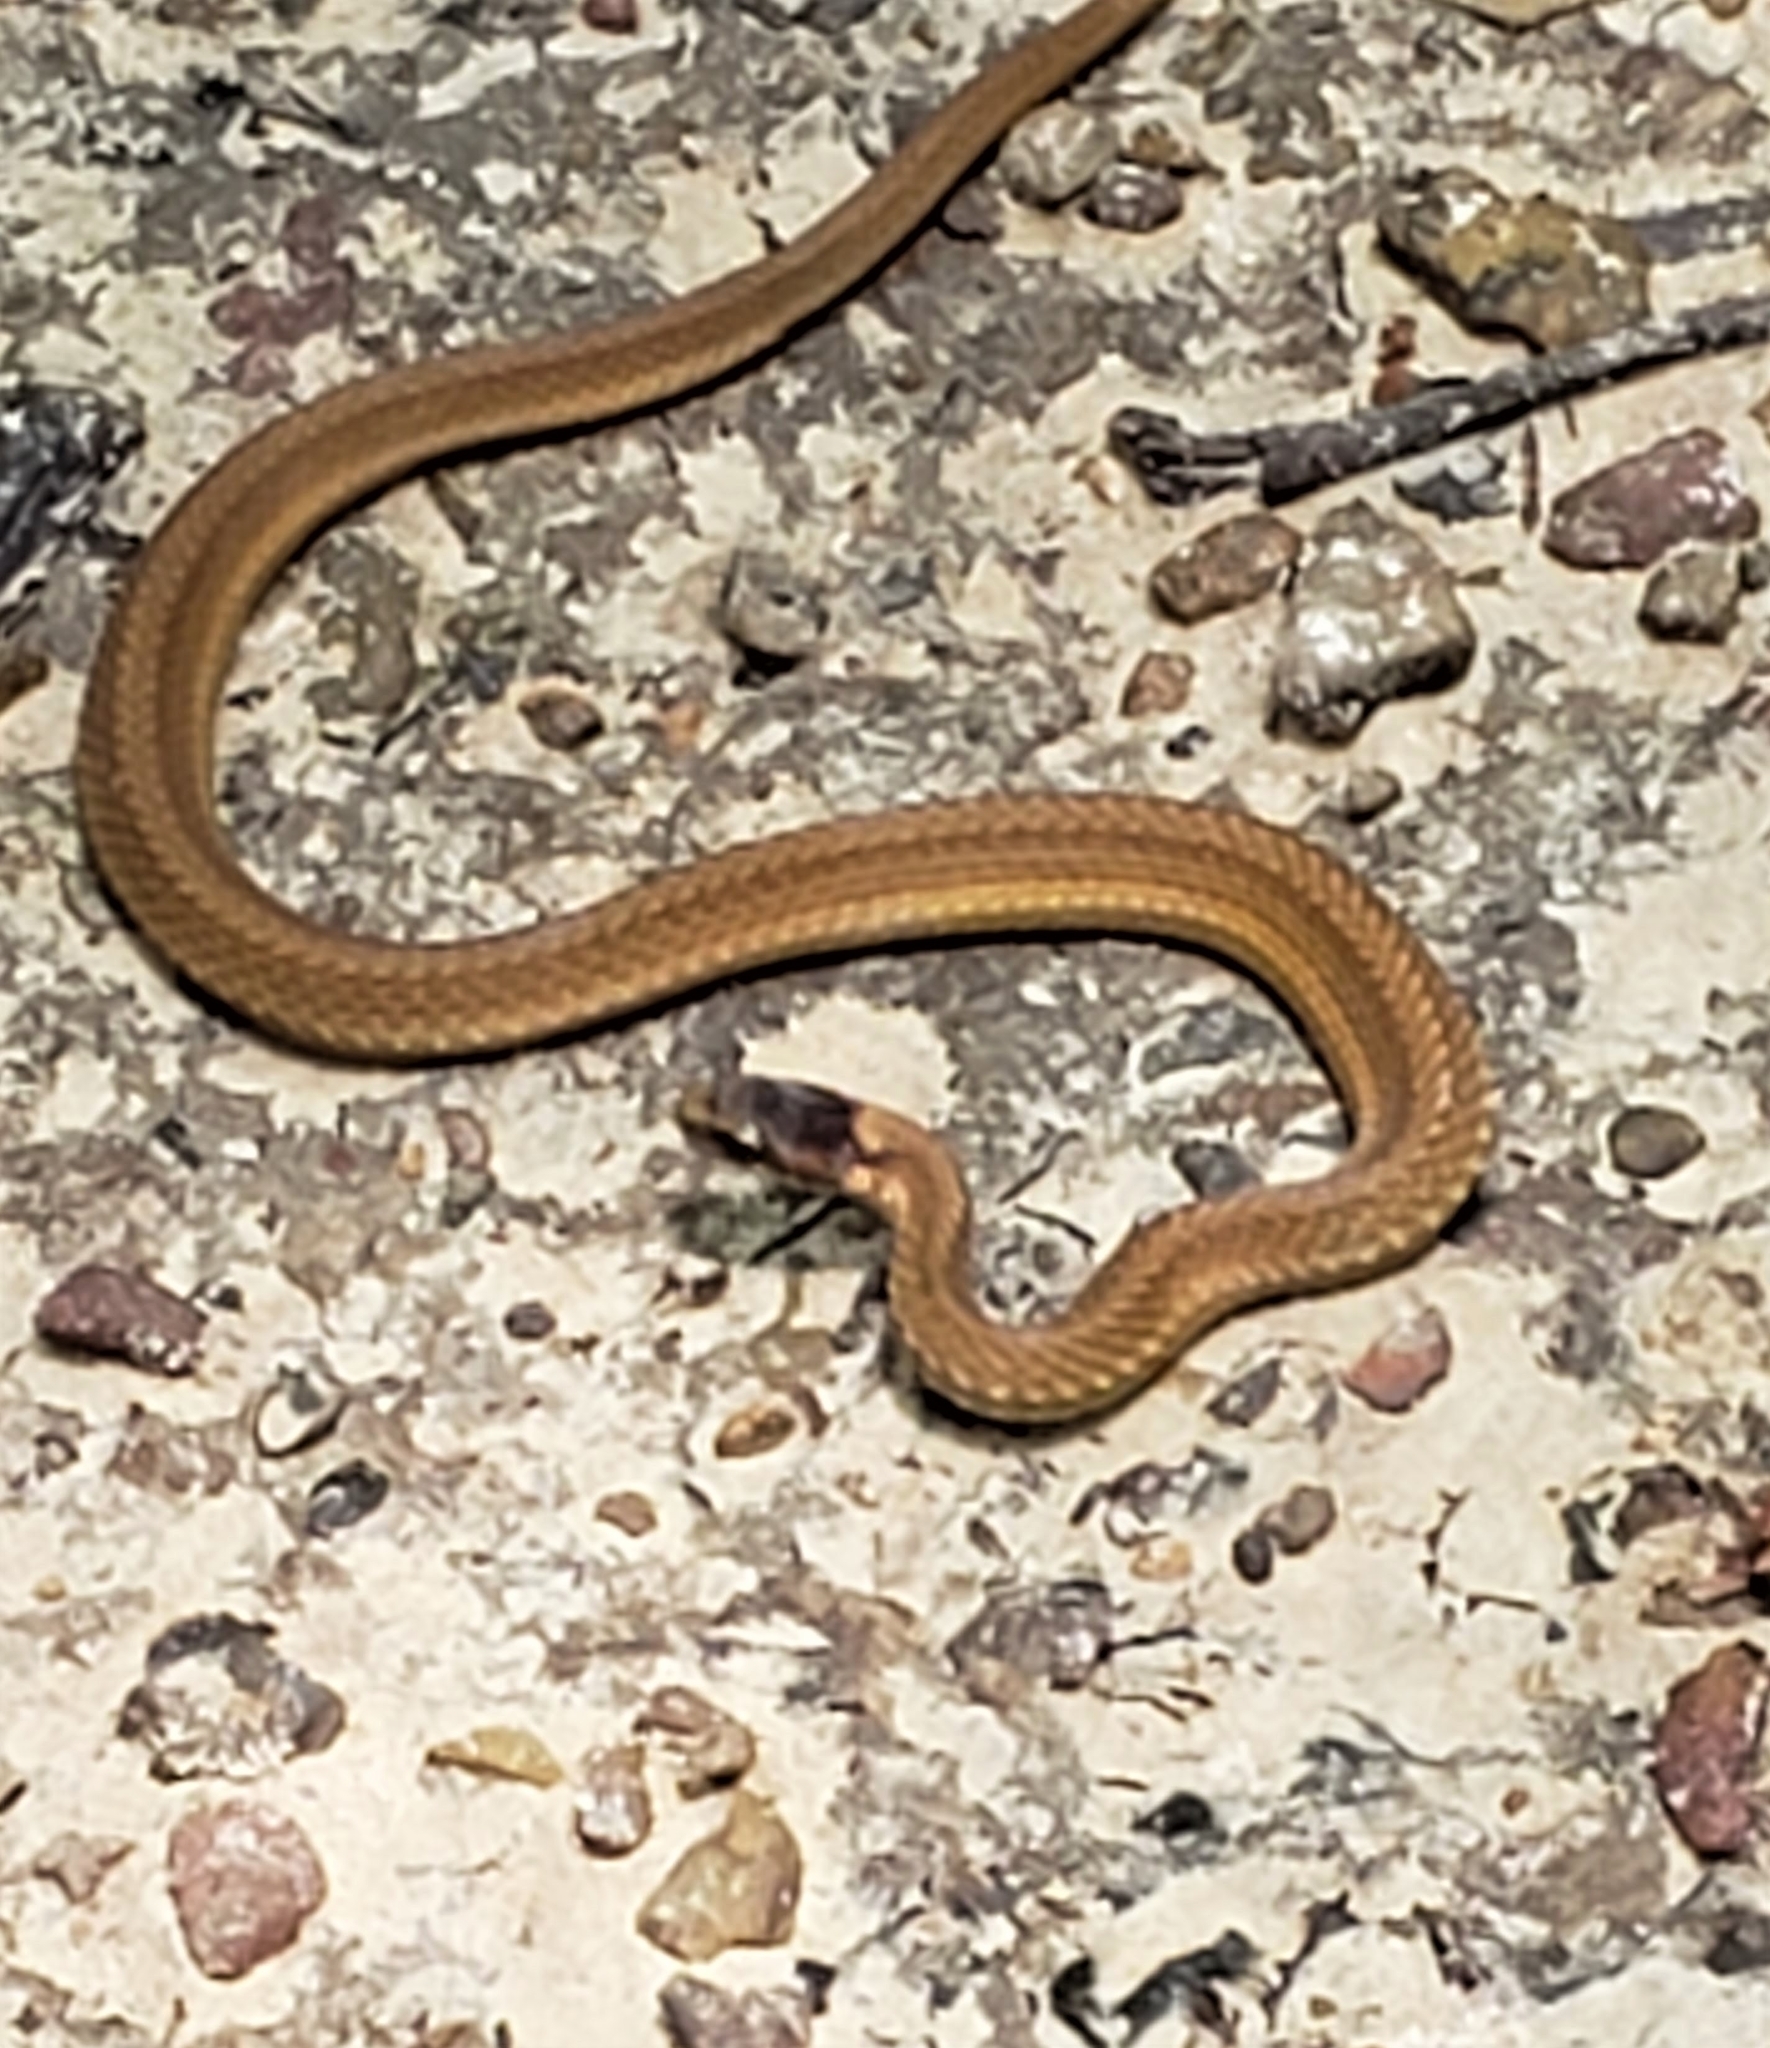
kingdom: Animalia
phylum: Chordata
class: Squamata
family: Colubridae
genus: Storeria
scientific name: Storeria occipitomaculata
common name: Redbelly snake
